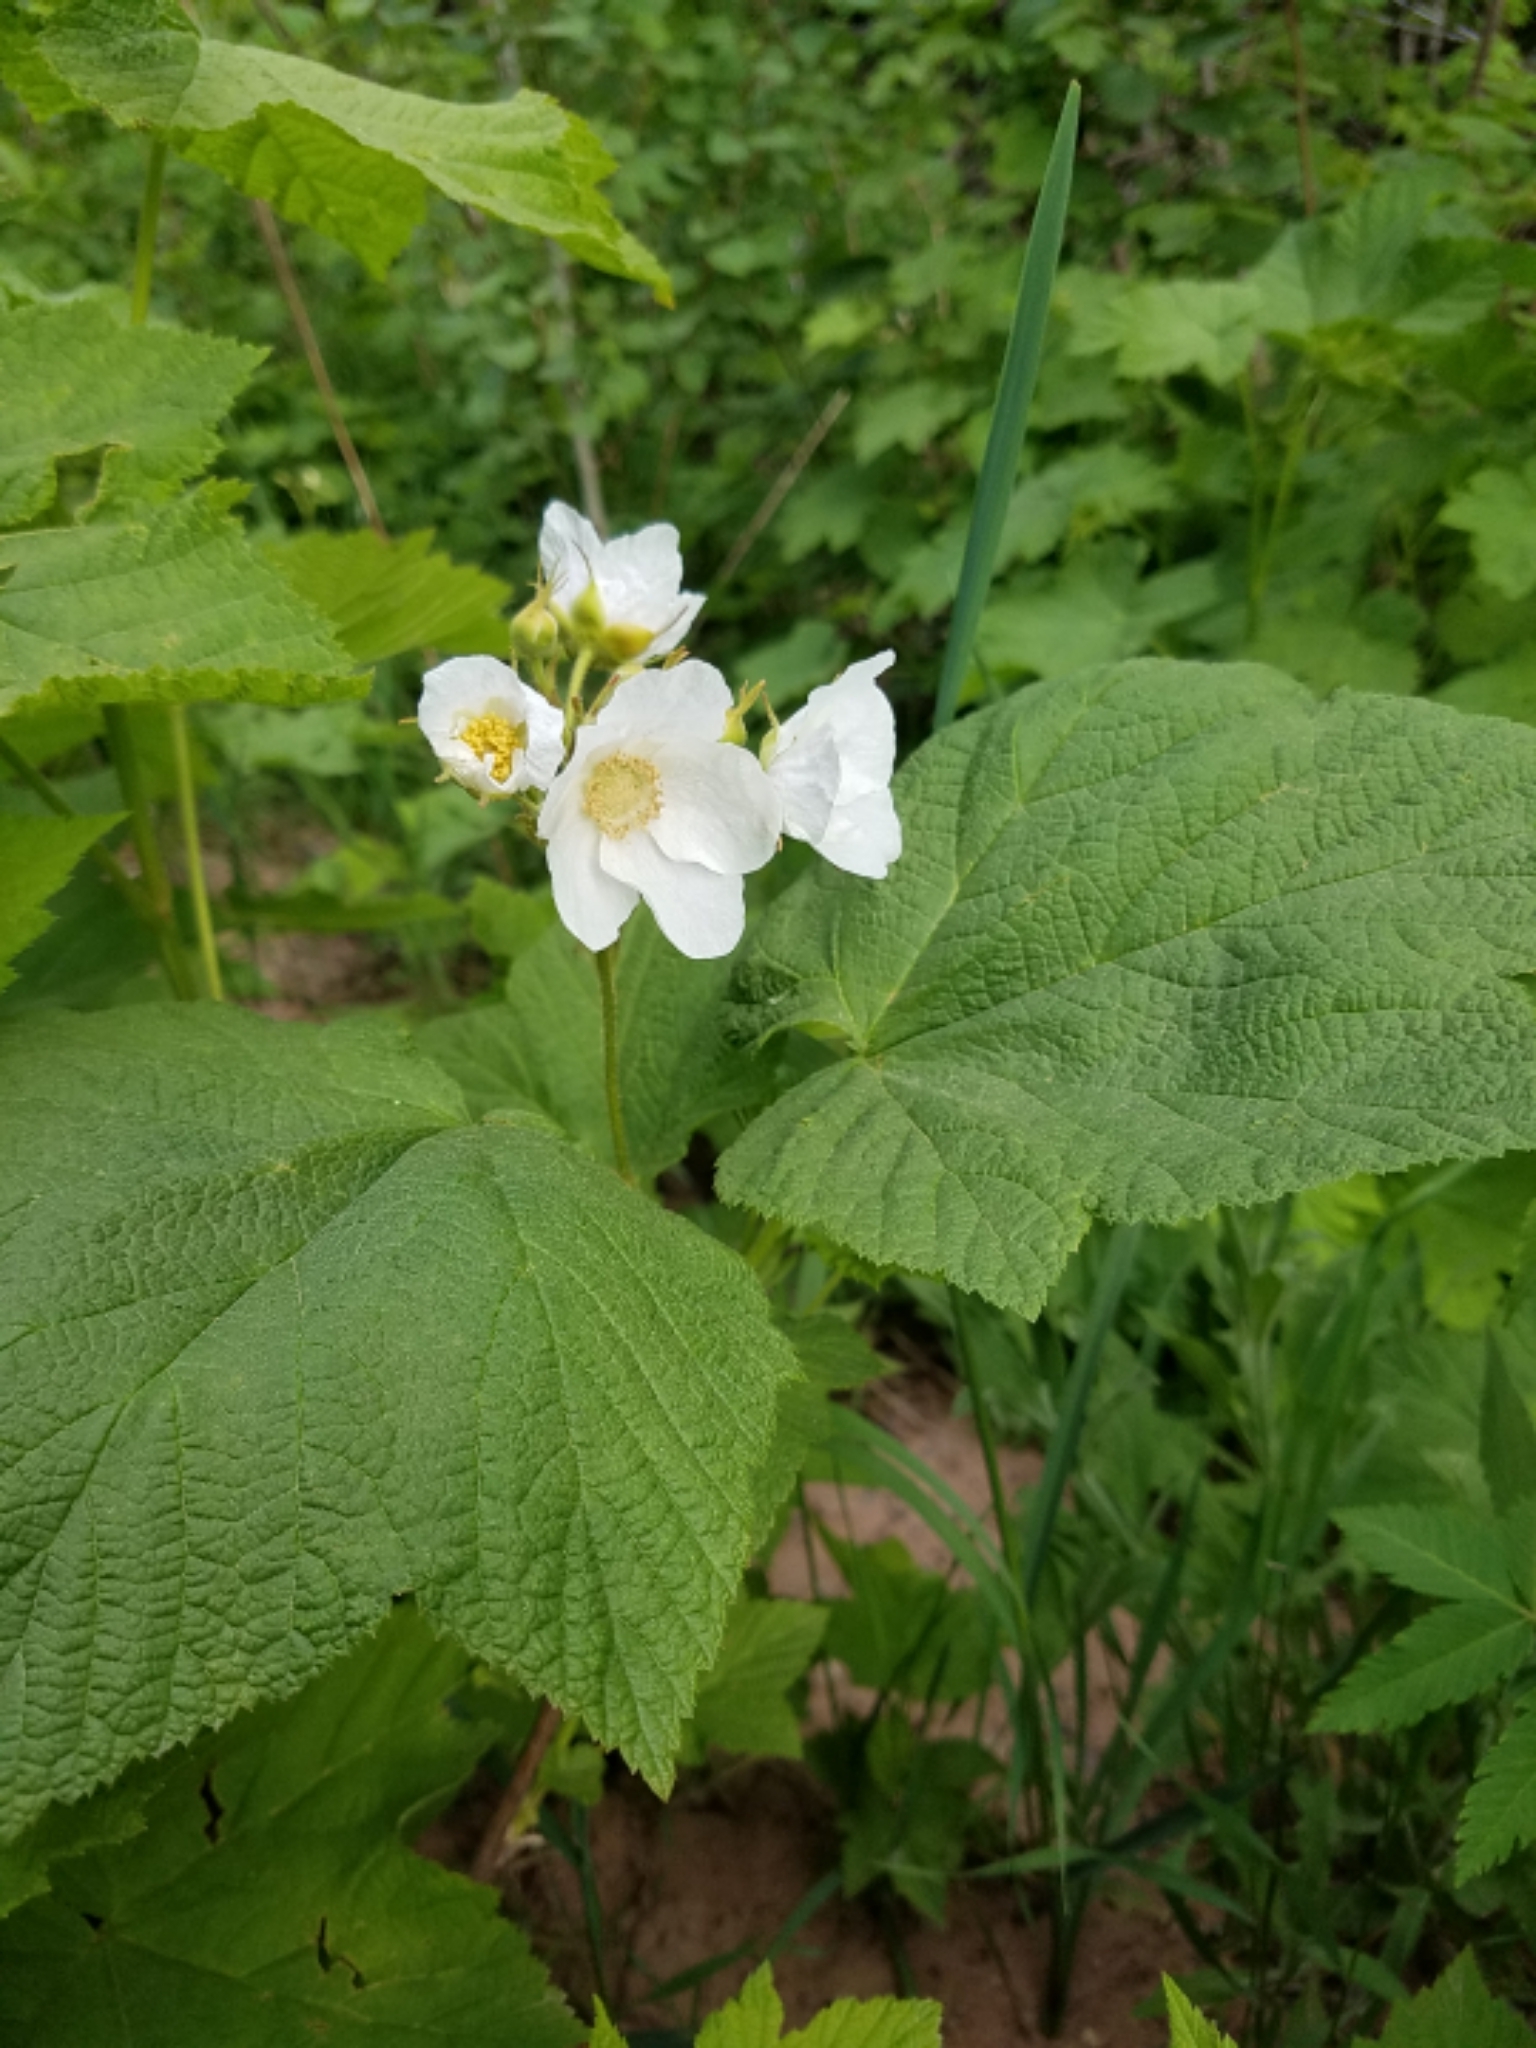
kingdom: Plantae
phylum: Tracheophyta
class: Magnoliopsida
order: Rosales
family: Rosaceae
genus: Rubus
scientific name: Rubus parviflorus
